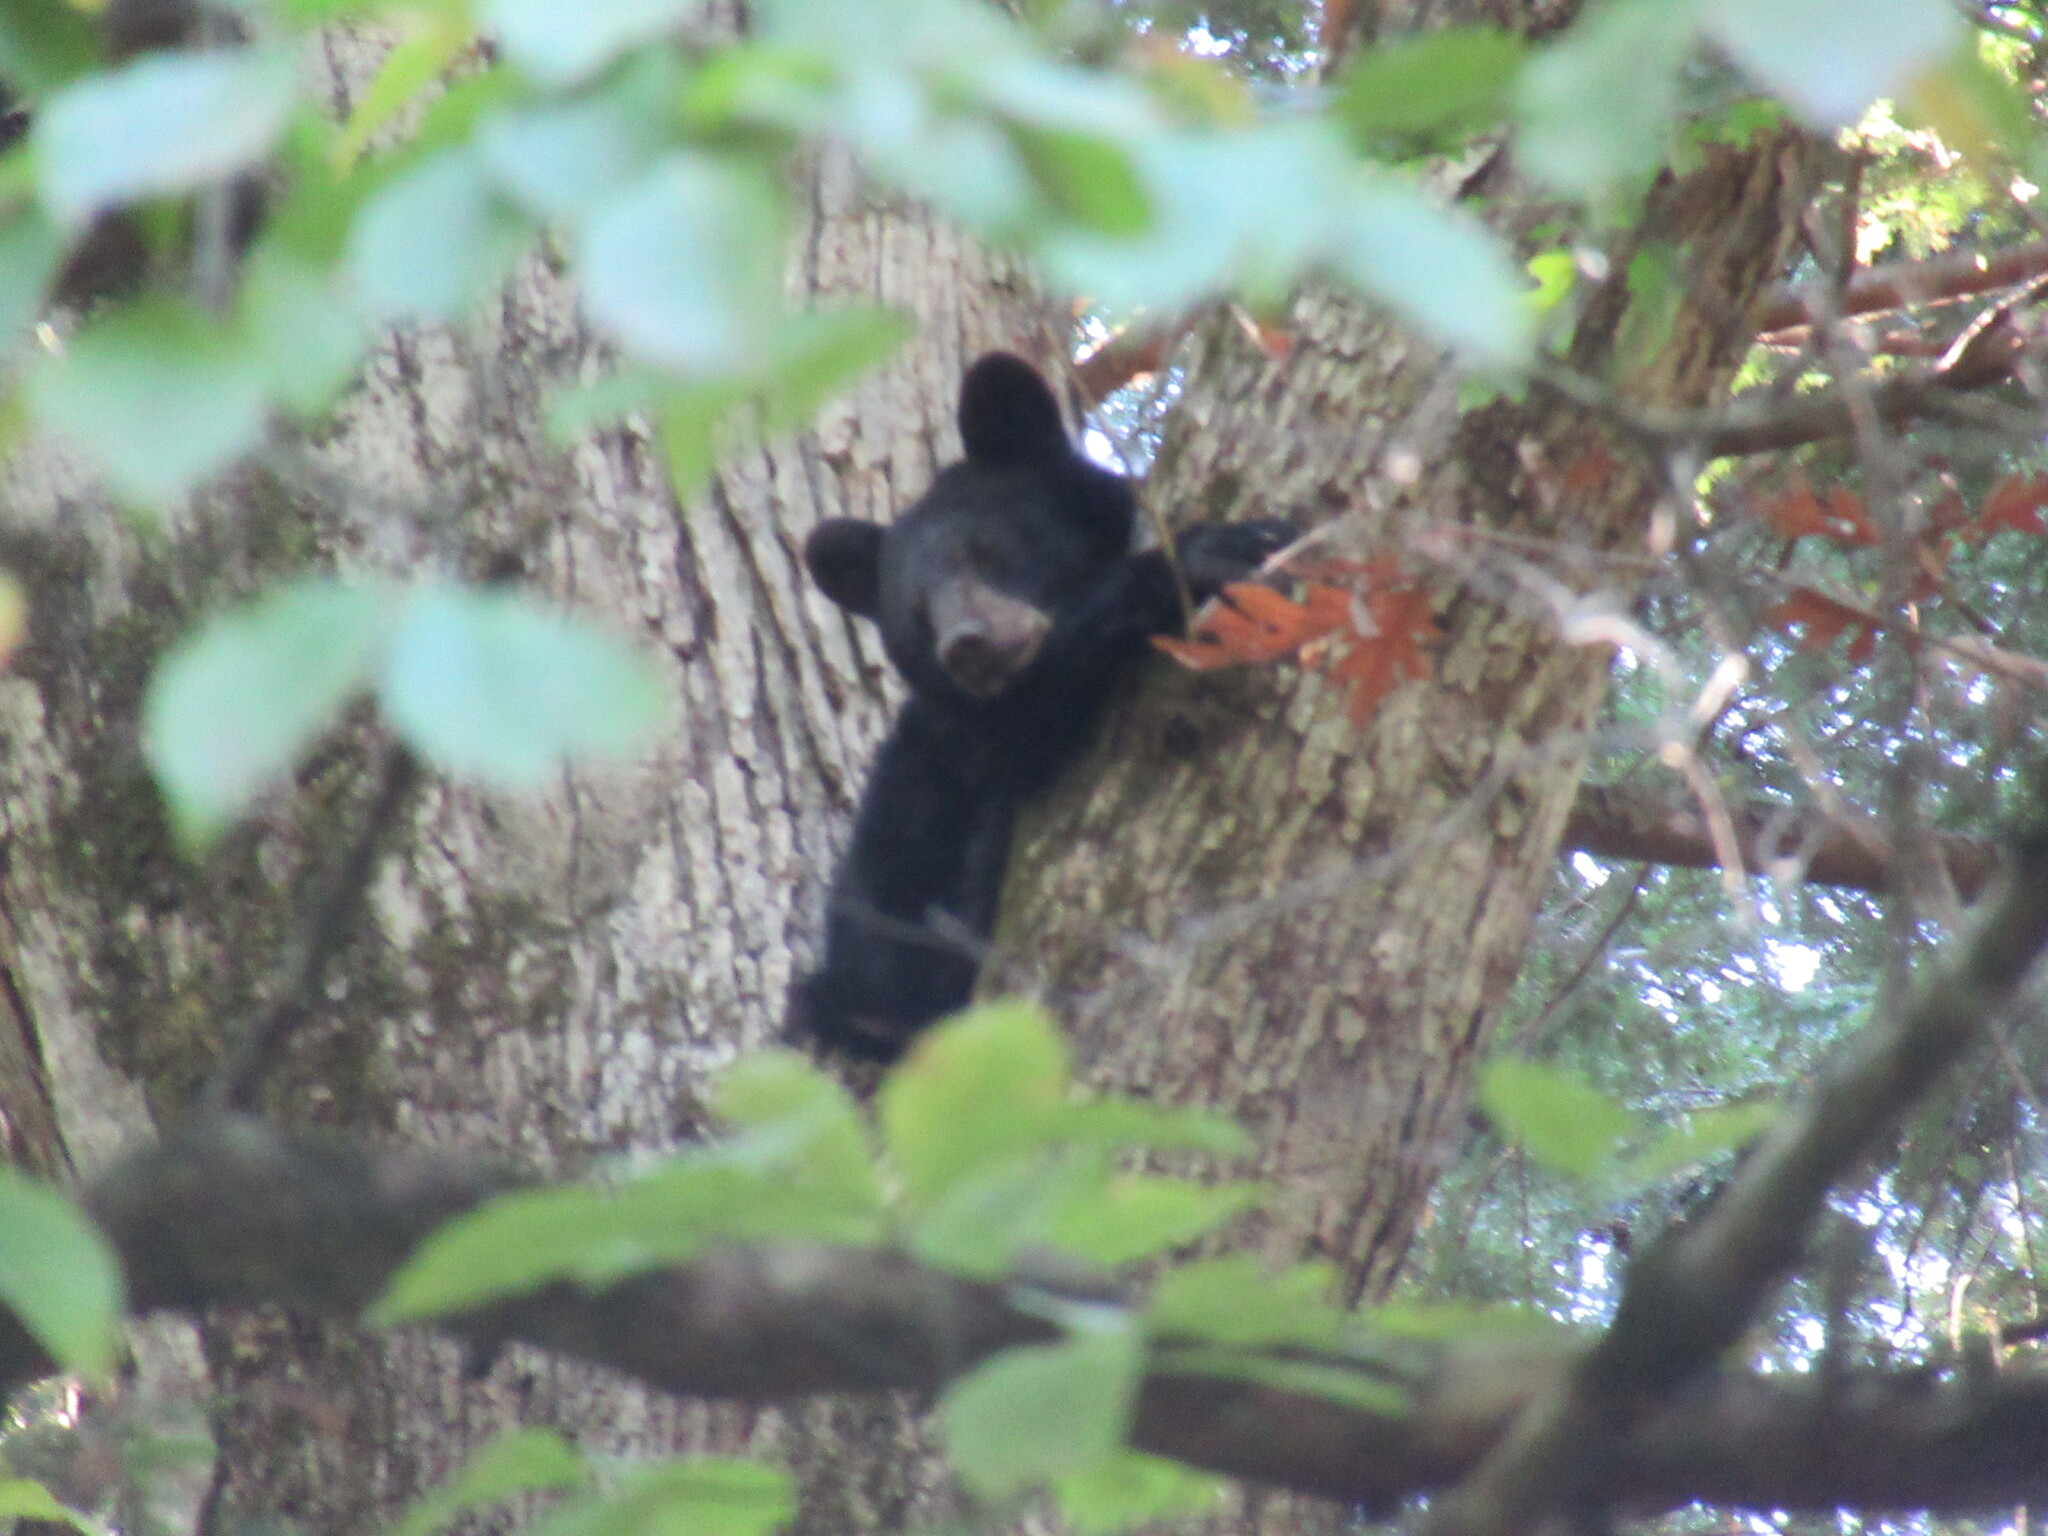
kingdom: Animalia
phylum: Chordata
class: Mammalia
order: Carnivora
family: Ursidae
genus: Ursus
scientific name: Ursus americanus
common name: American black bear
